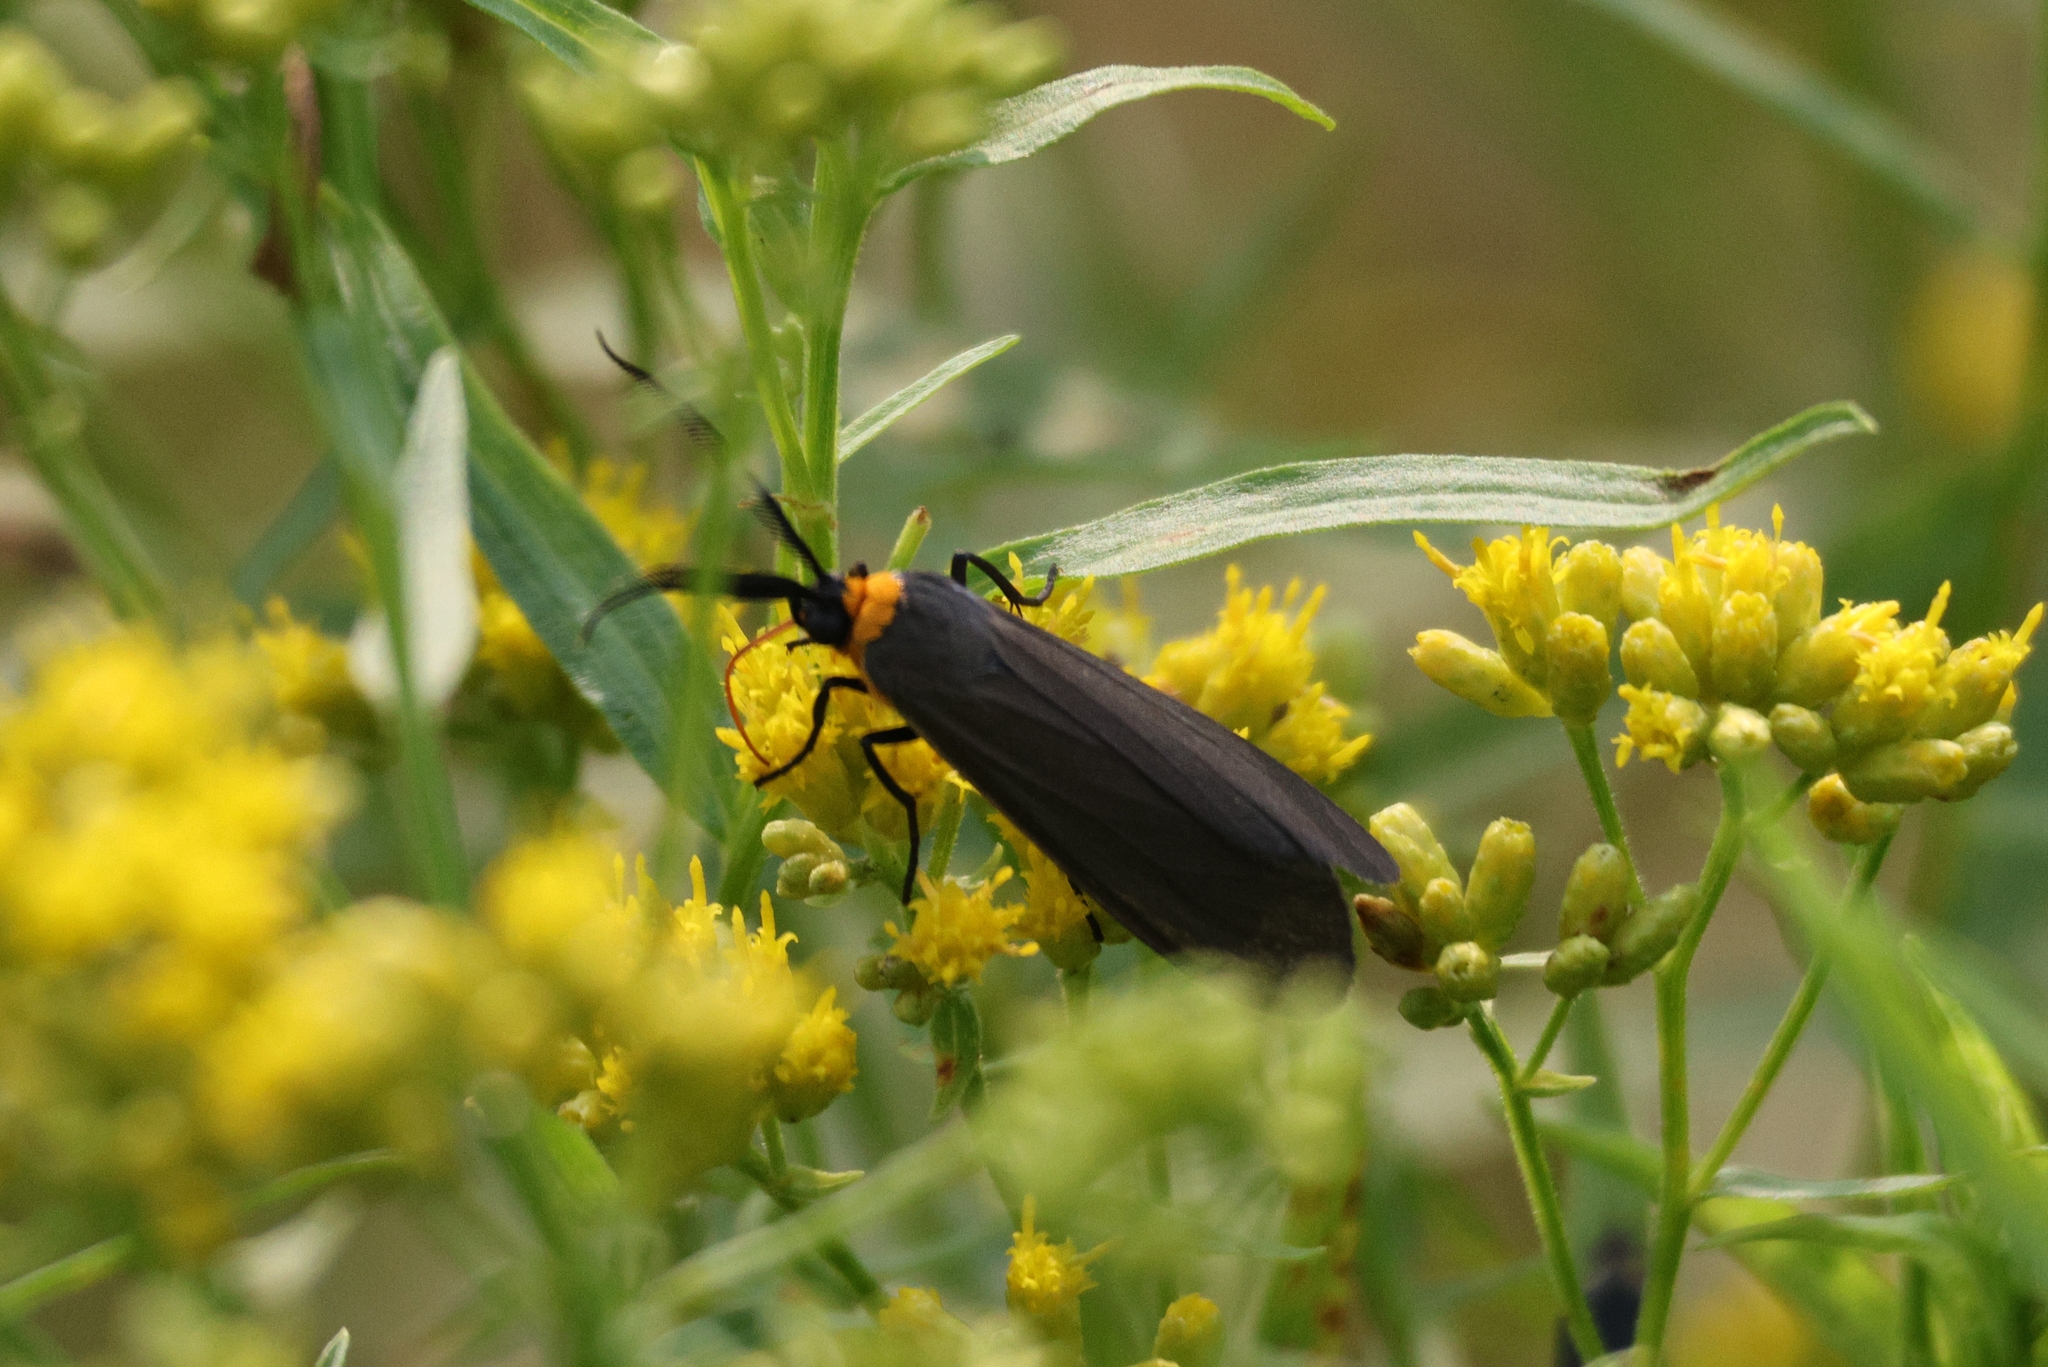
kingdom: Animalia
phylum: Arthropoda
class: Insecta
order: Lepidoptera
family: Erebidae
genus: Cisseps
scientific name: Cisseps fulvicollis
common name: Yellow-collared scape moth
